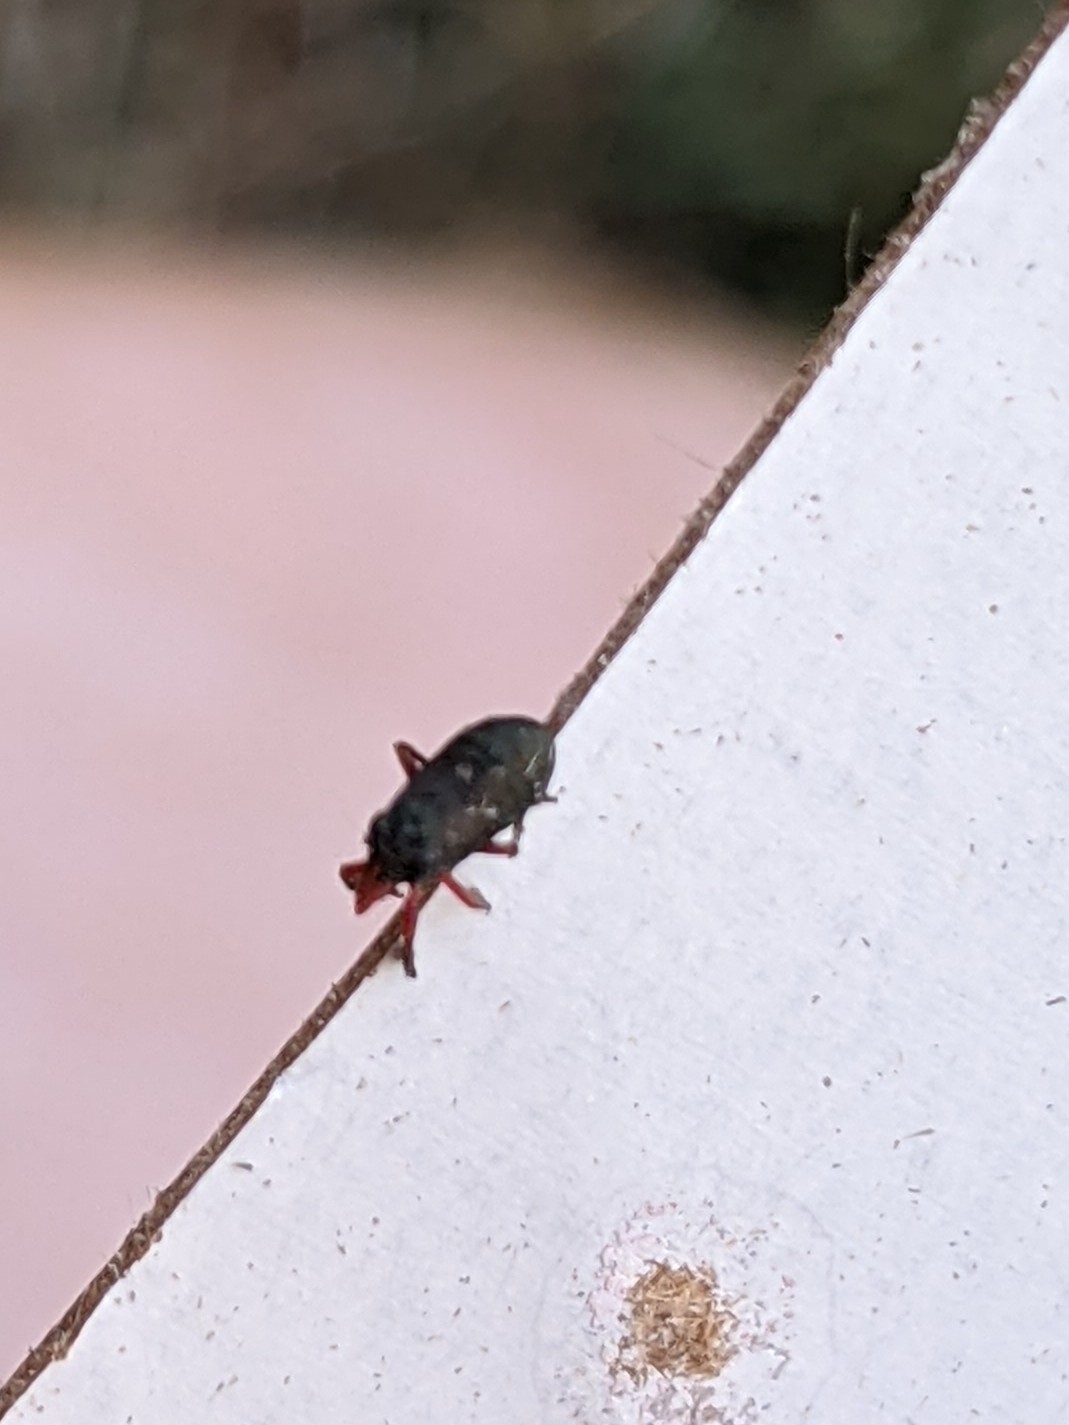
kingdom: Animalia
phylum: Arthropoda
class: Insecta
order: Hemiptera
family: Caliscelidae
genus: Fitchiella
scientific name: Fitchiella rufipes
